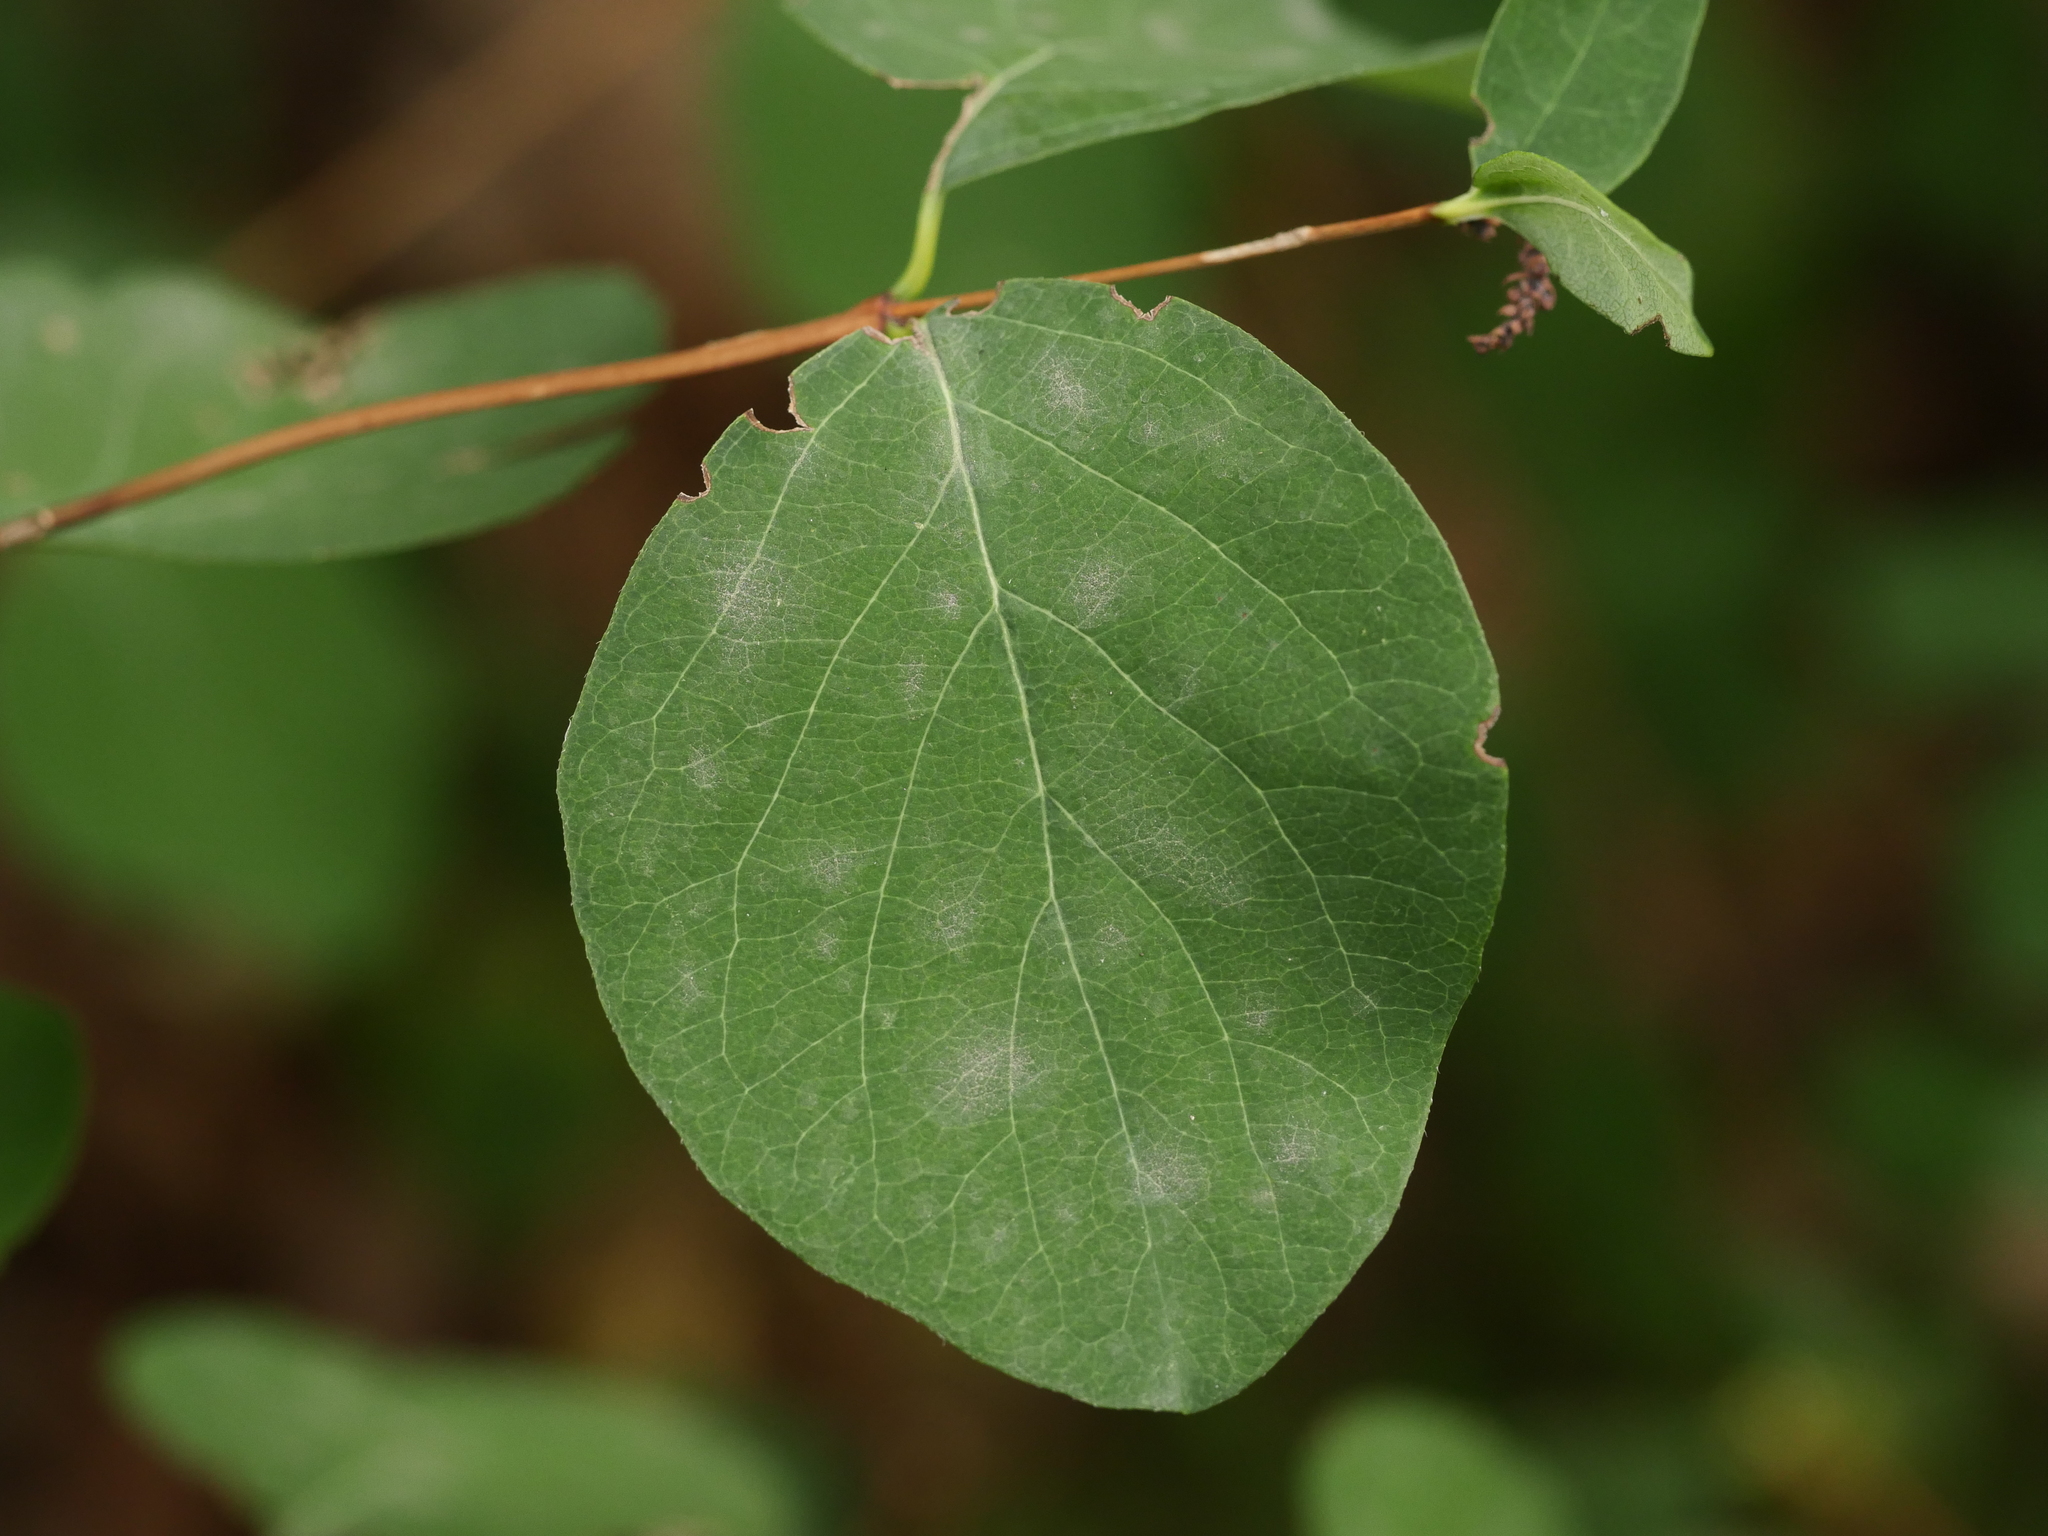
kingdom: Fungi
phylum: Ascomycota
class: Leotiomycetes
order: Helotiales
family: Erysiphaceae
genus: Erysiphe
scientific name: Erysiphe symphoricarpi
